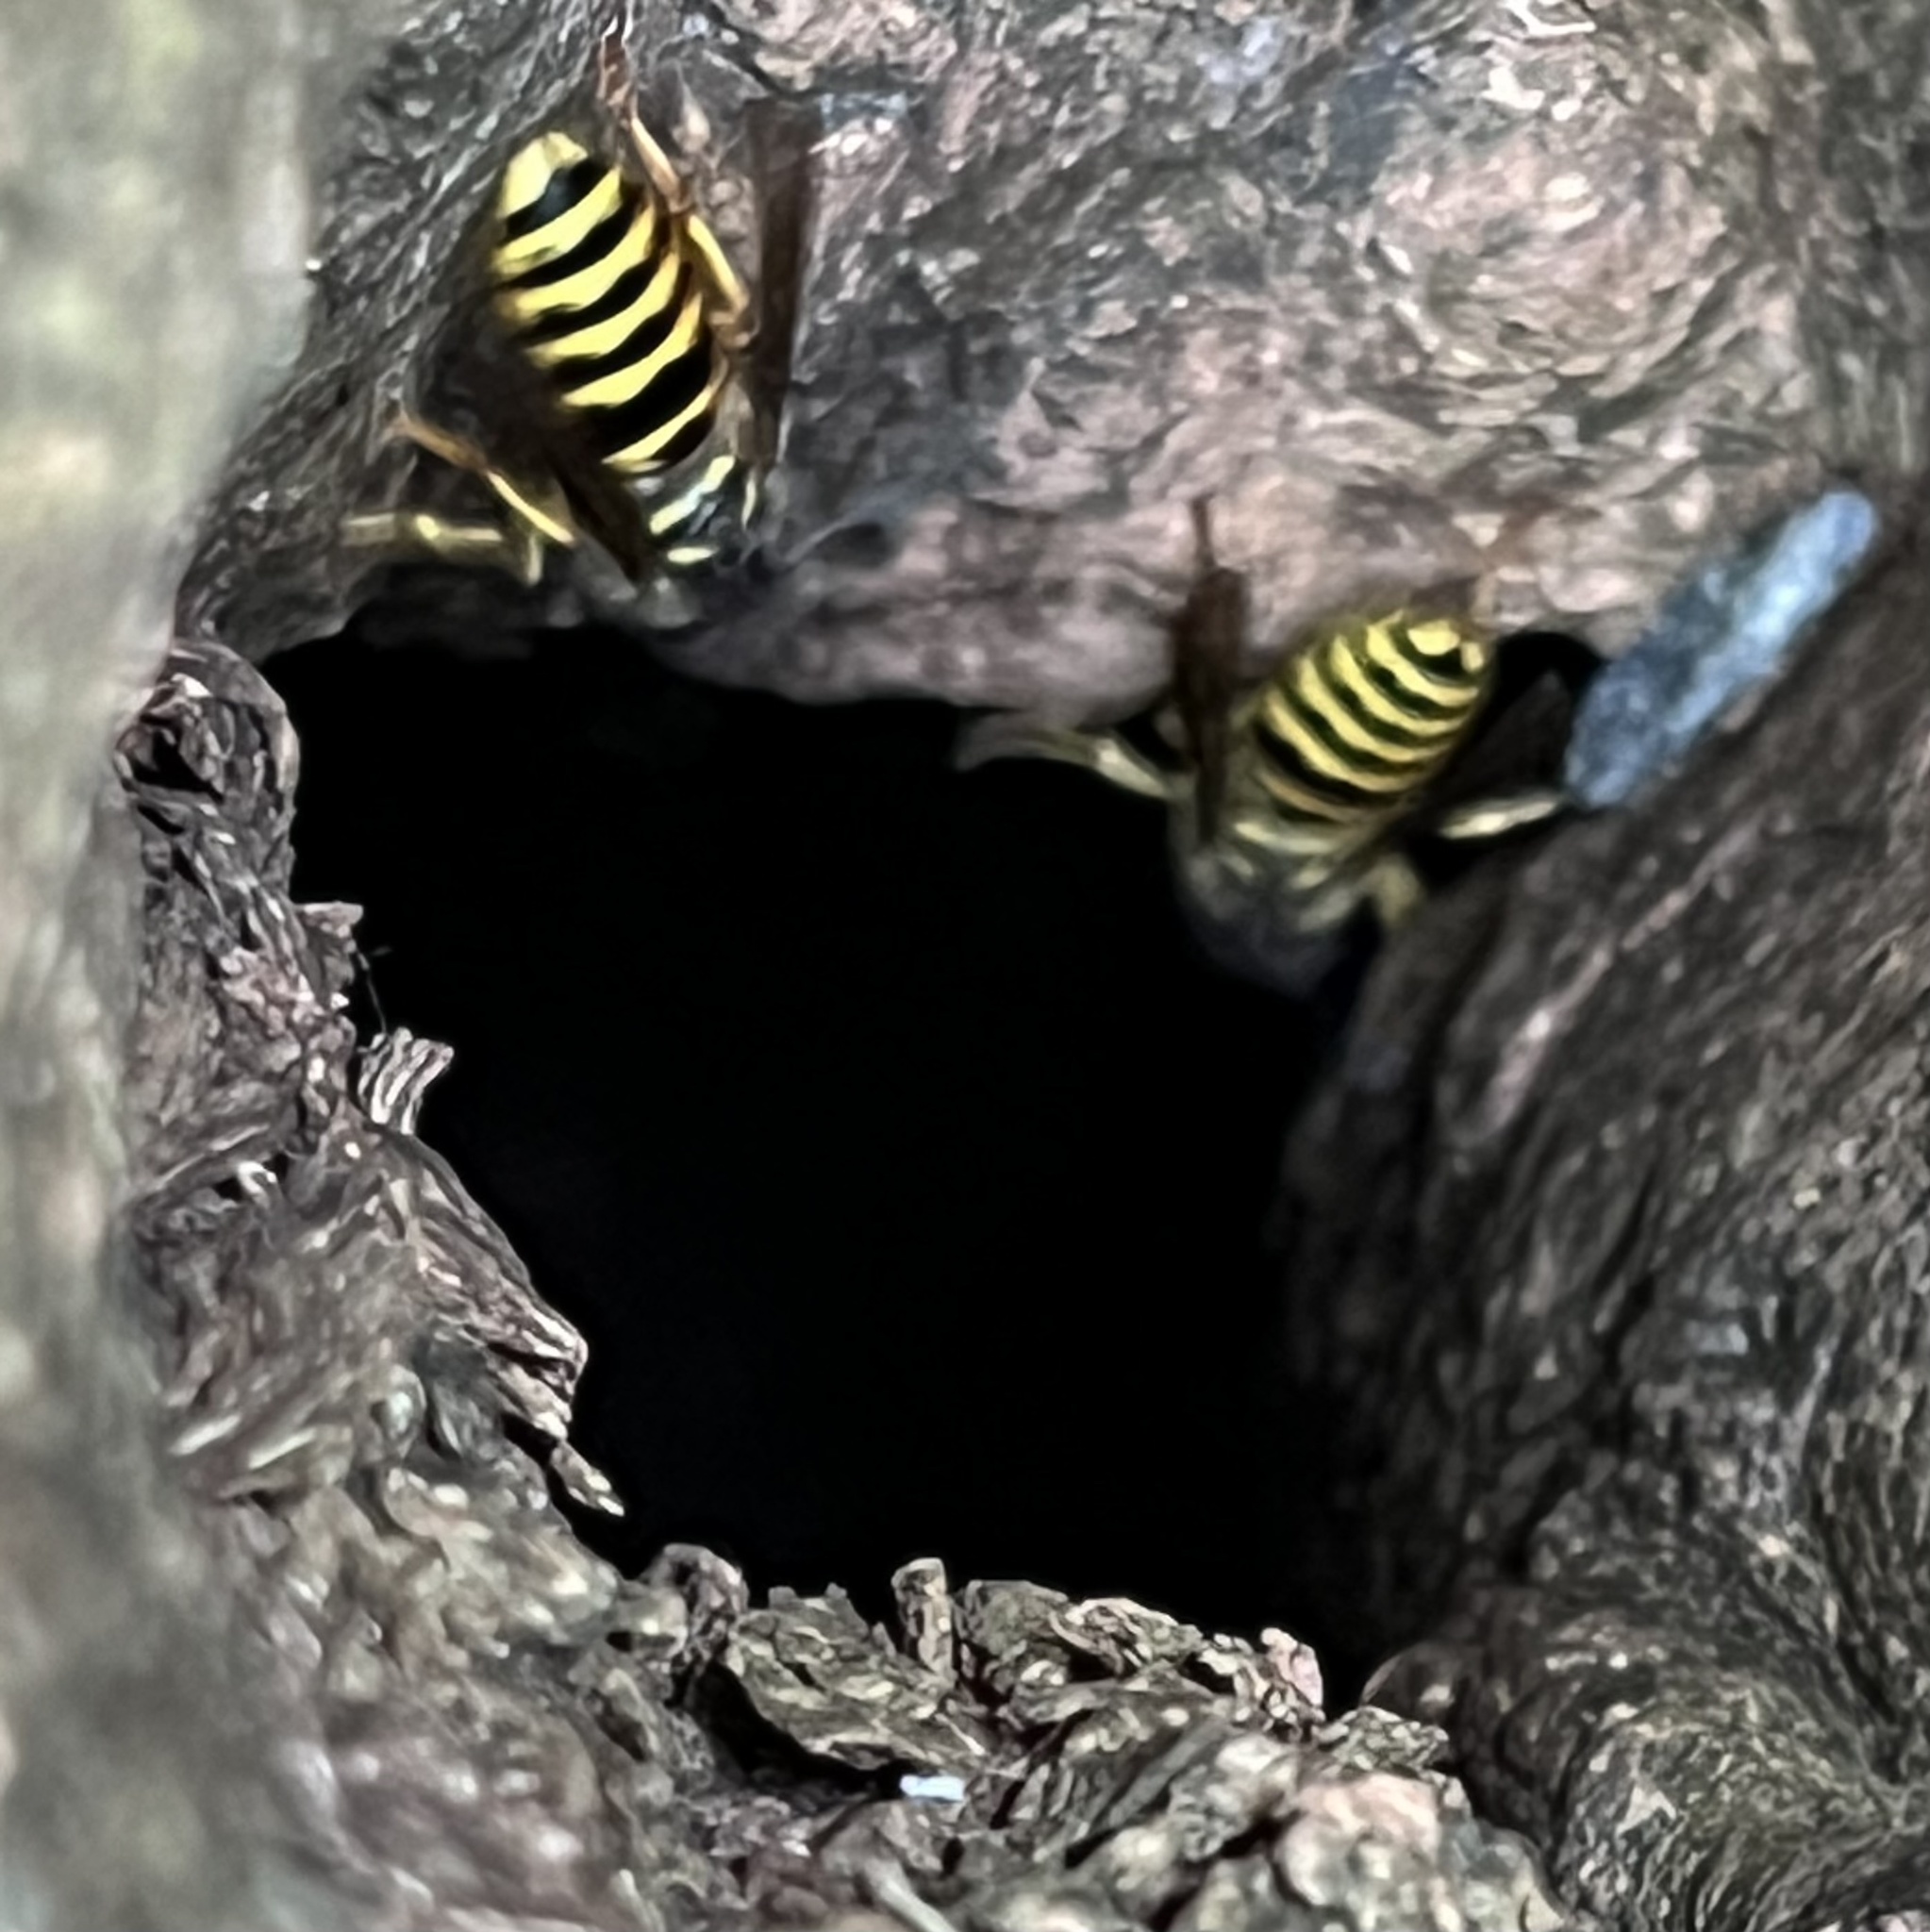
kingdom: Animalia
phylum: Arthropoda
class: Insecta
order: Hymenoptera
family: Vespidae
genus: Vespula
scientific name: Vespula flavopilosa
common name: Downy yellowjacket
